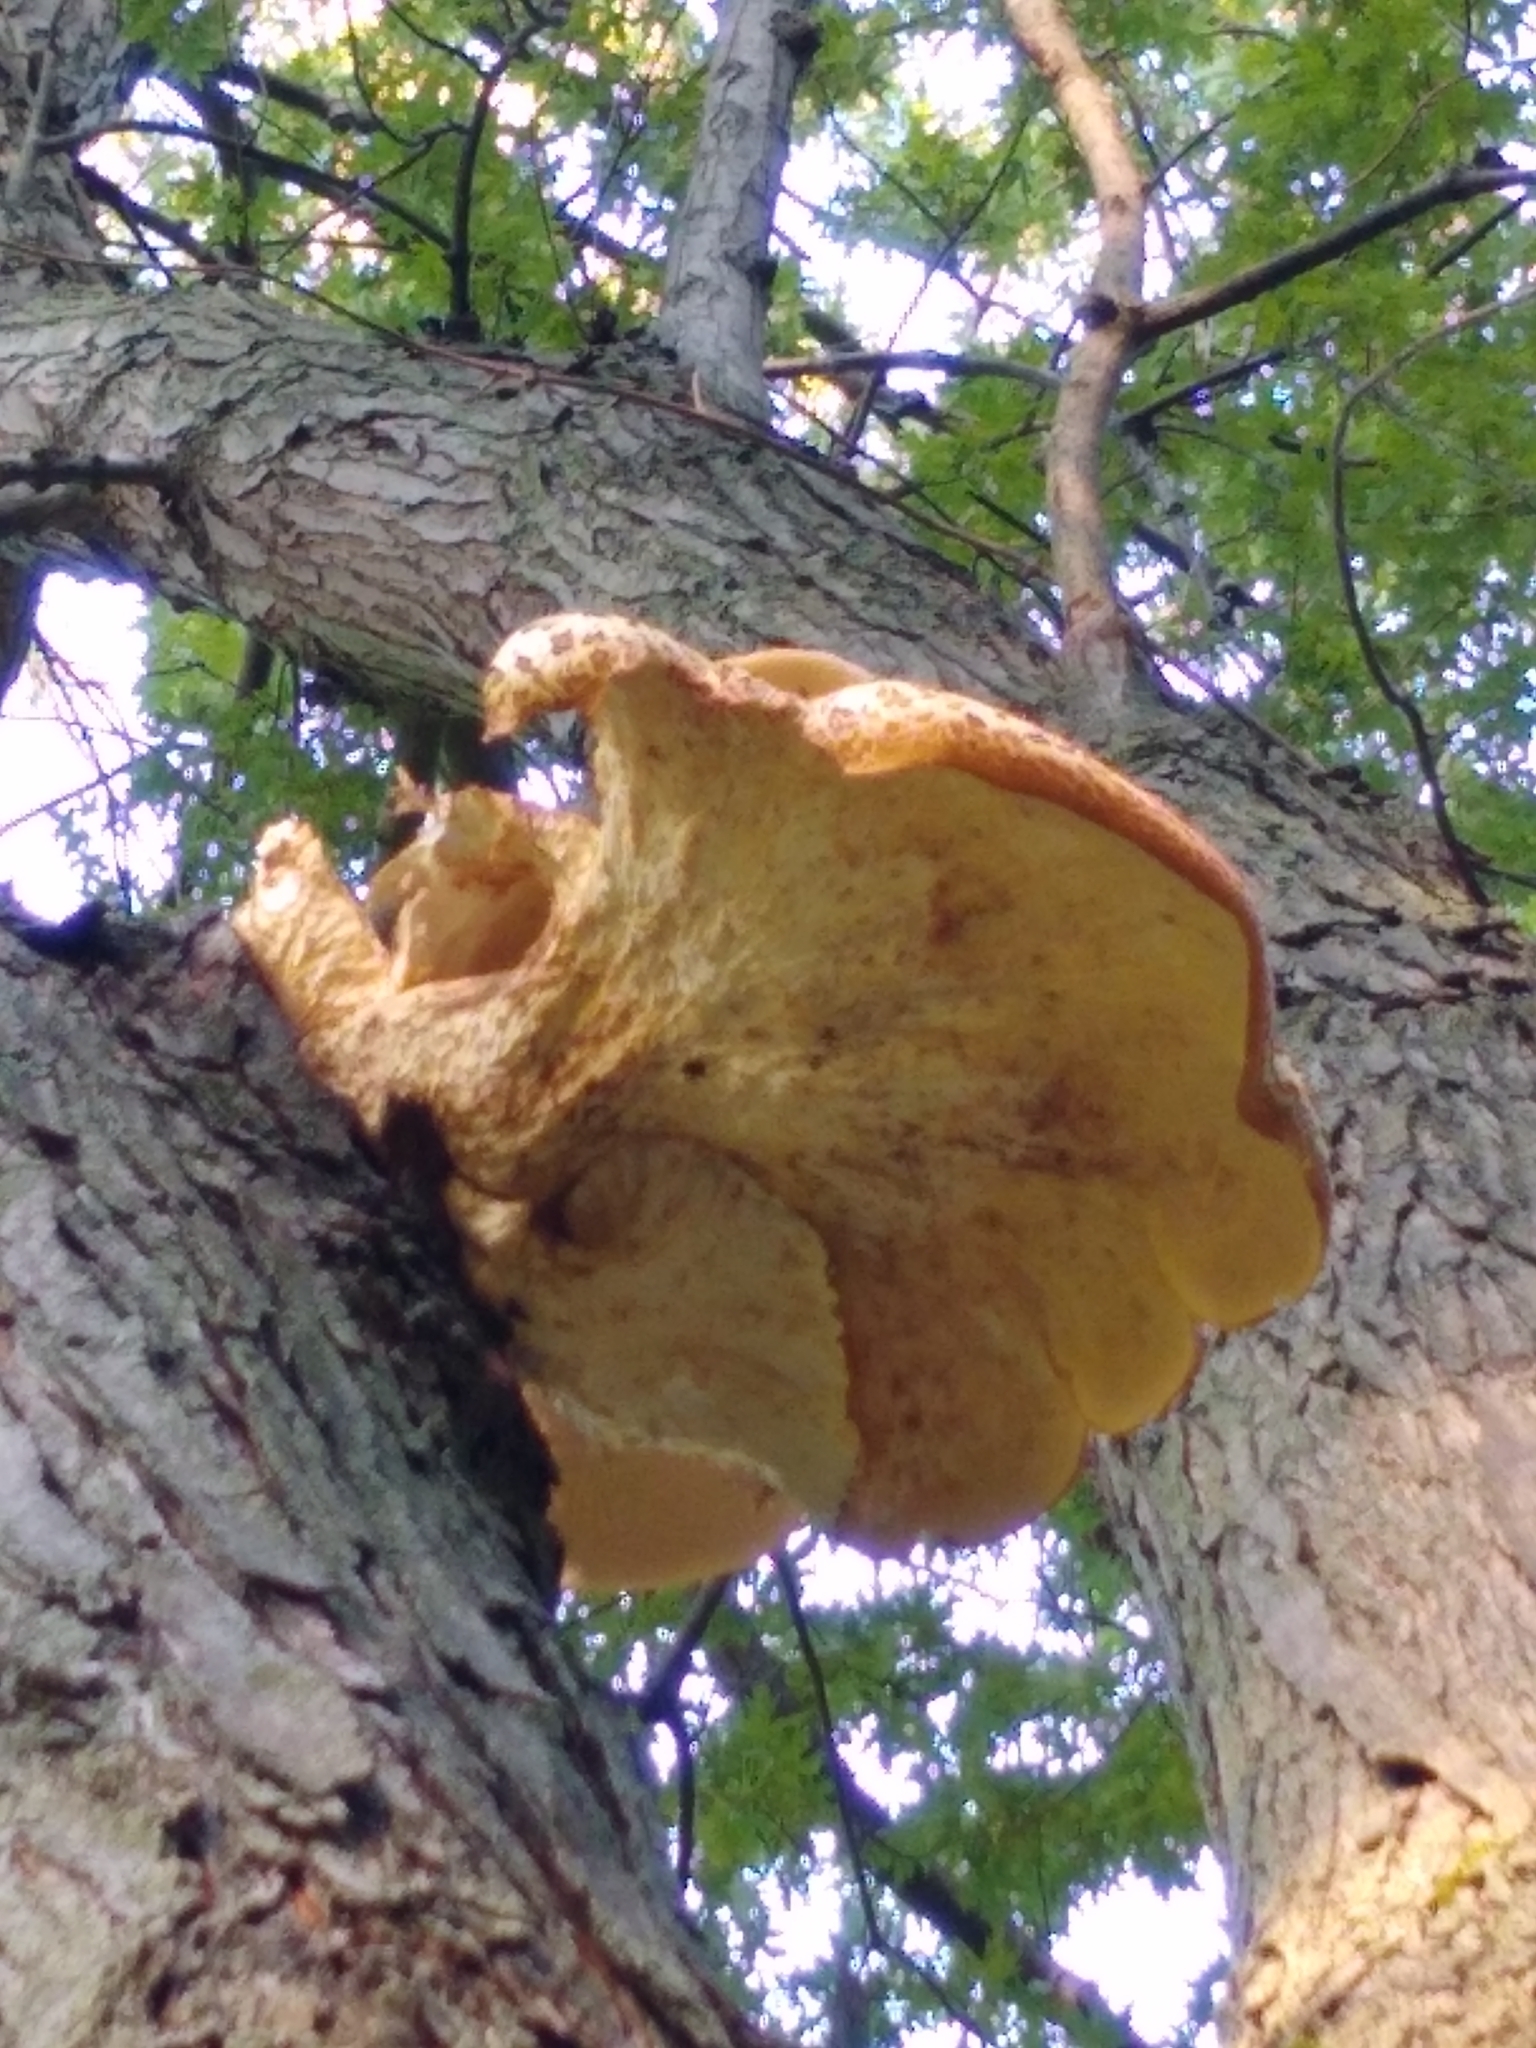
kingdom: Fungi
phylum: Basidiomycota
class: Agaricomycetes
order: Polyporales
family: Polyporaceae
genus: Cerioporus
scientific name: Cerioporus squamosus
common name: Dryad's saddle
